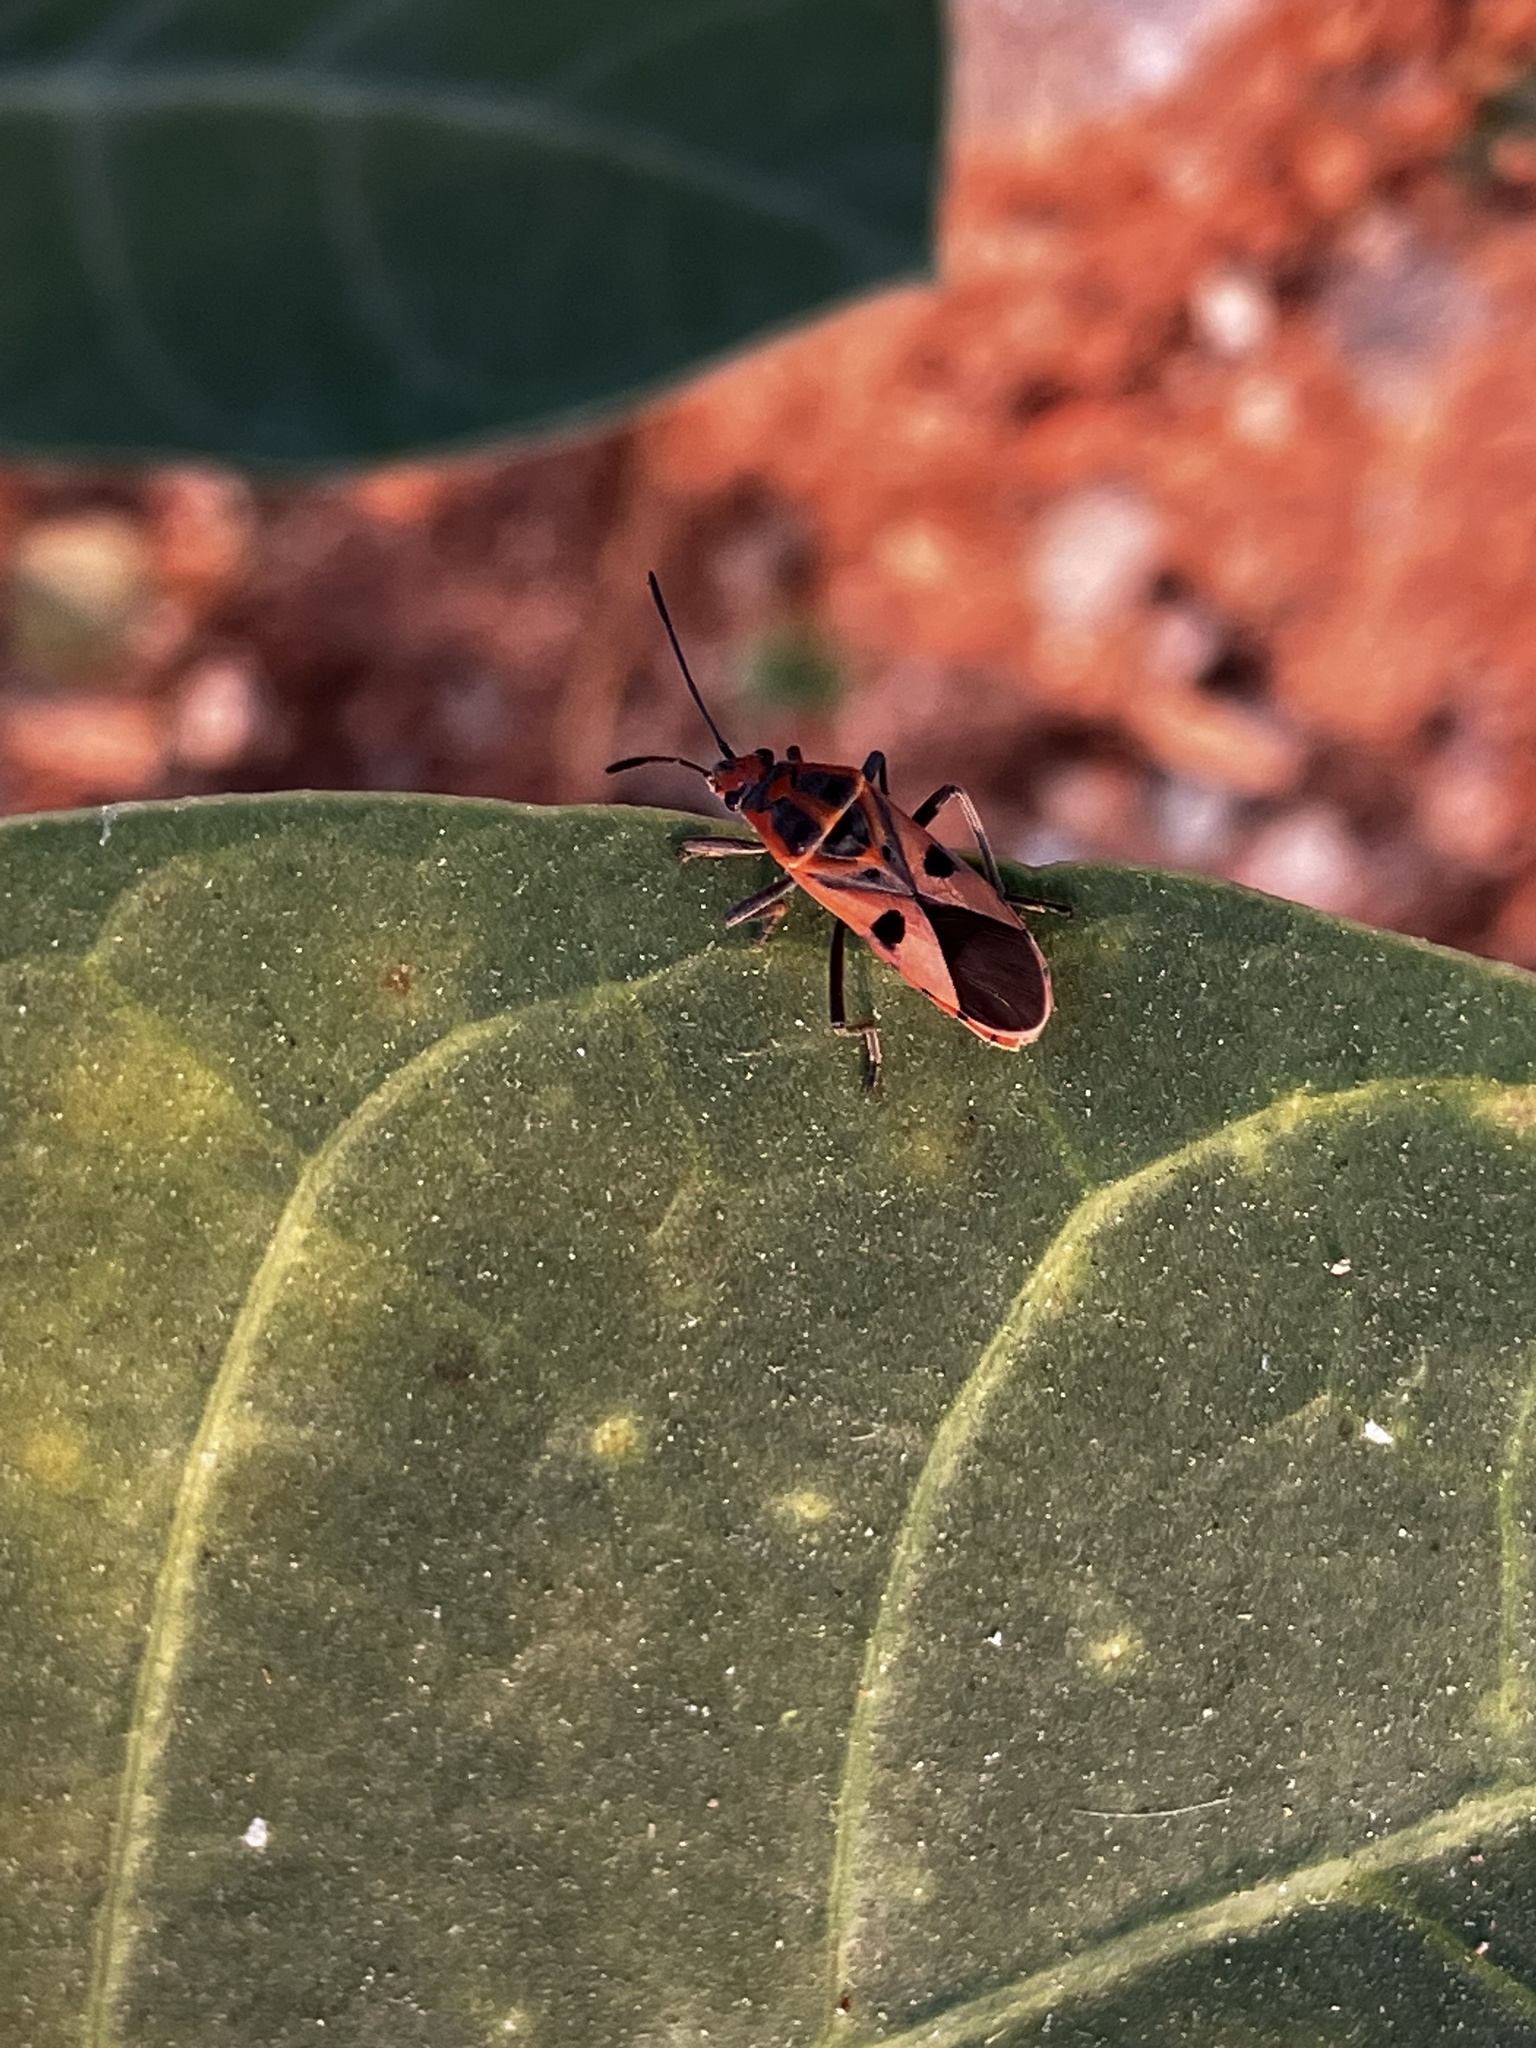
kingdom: Animalia
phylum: Arthropoda
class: Insecta
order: Hemiptera
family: Lygaeidae
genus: Spilostethus
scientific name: Spilostethus hospes
